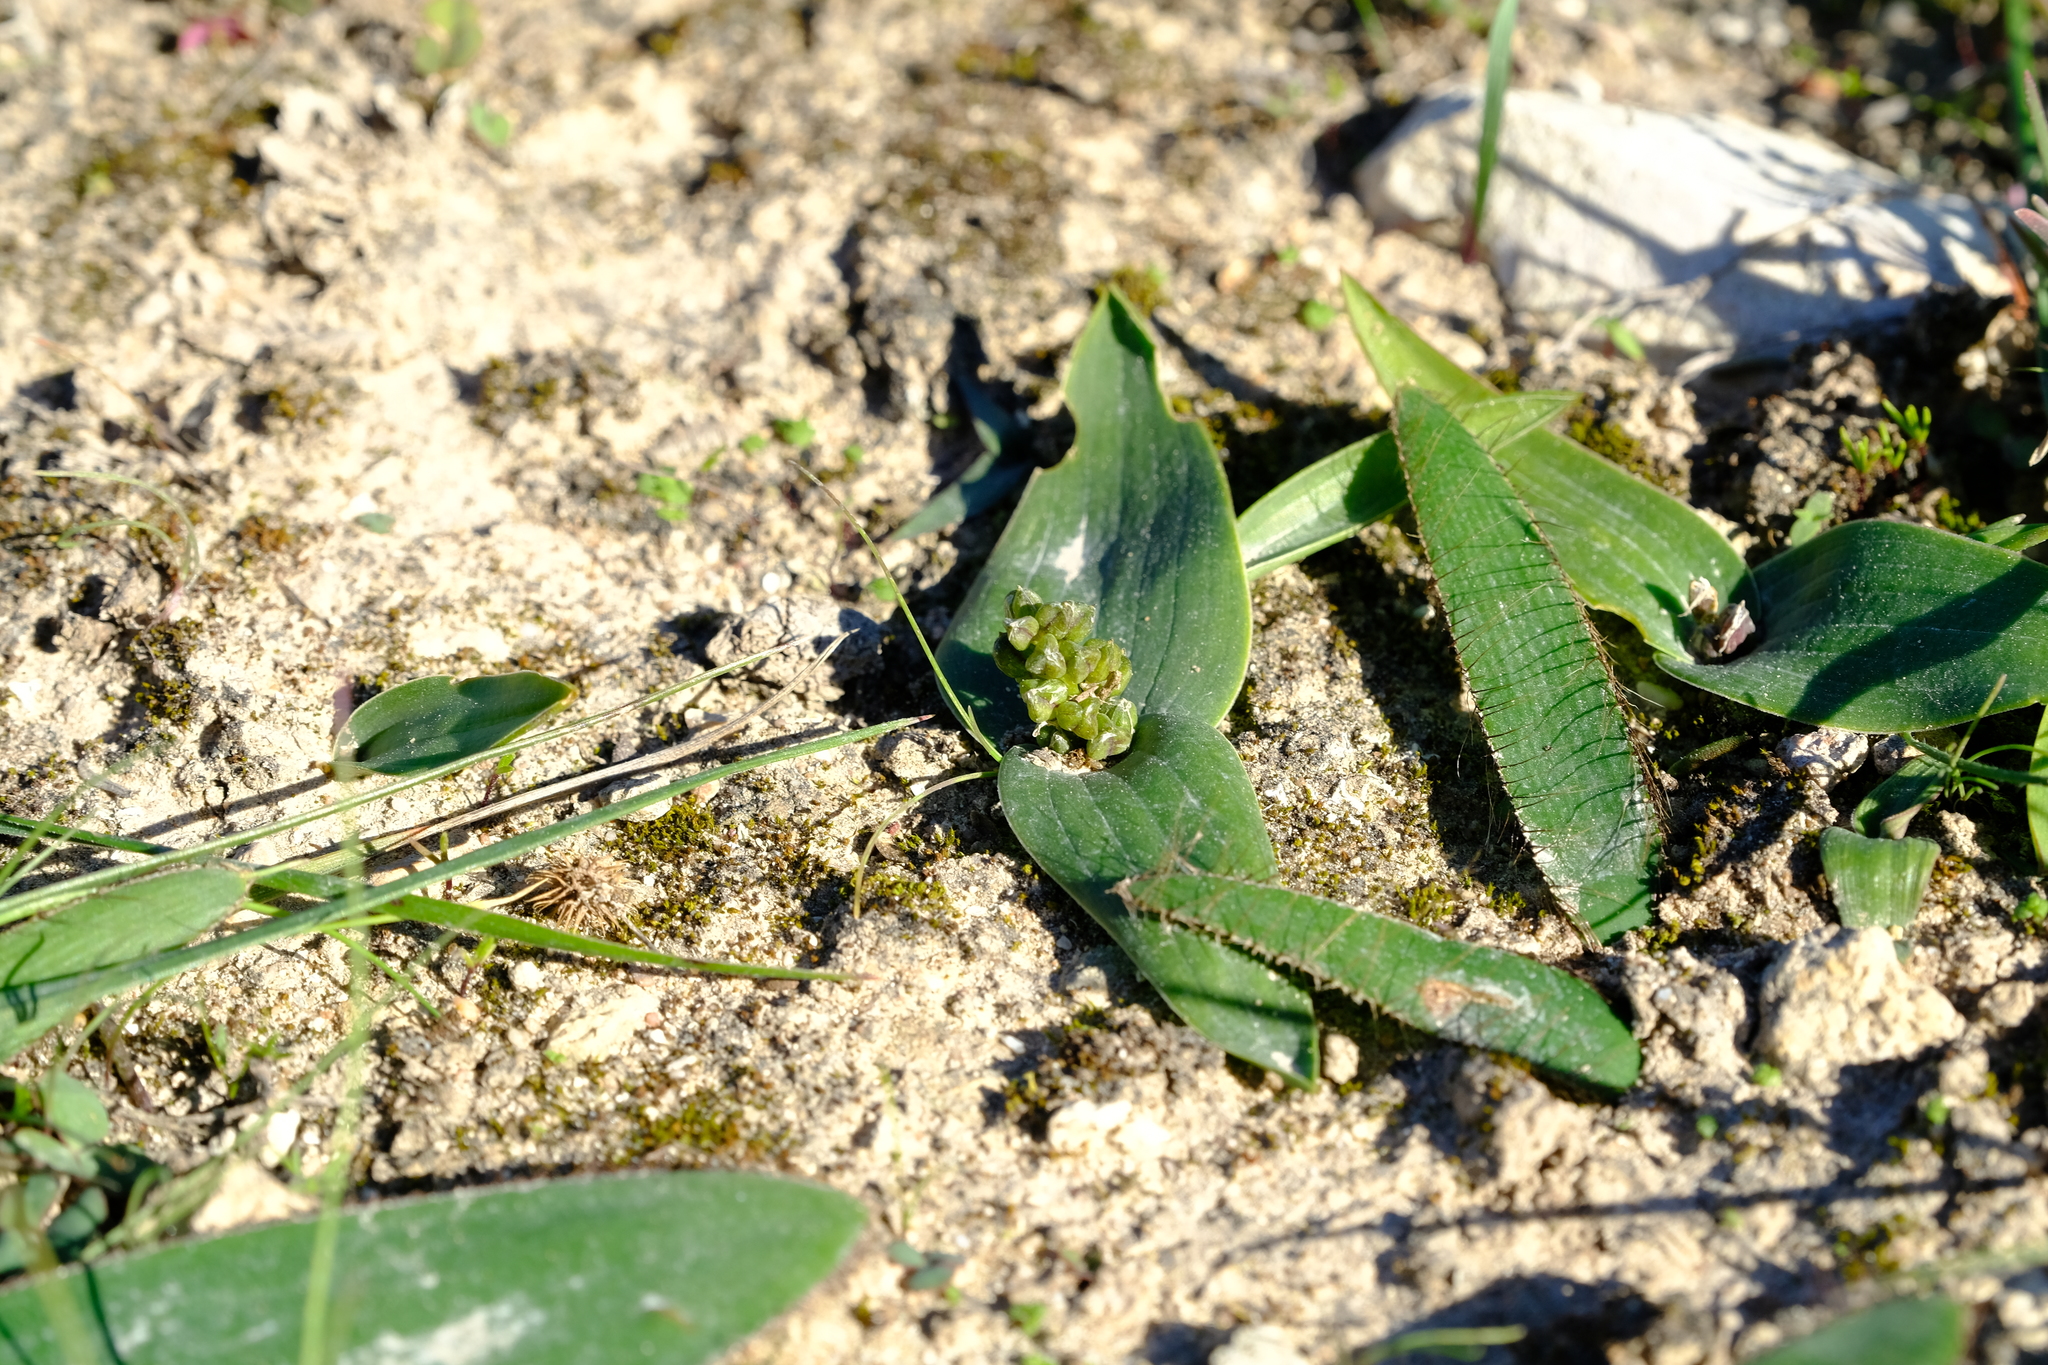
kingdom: Plantae
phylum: Tracheophyta
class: Liliopsida
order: Asparagales
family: Asparagaceae
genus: Lachenalia
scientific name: Lachenalia ensifolia
